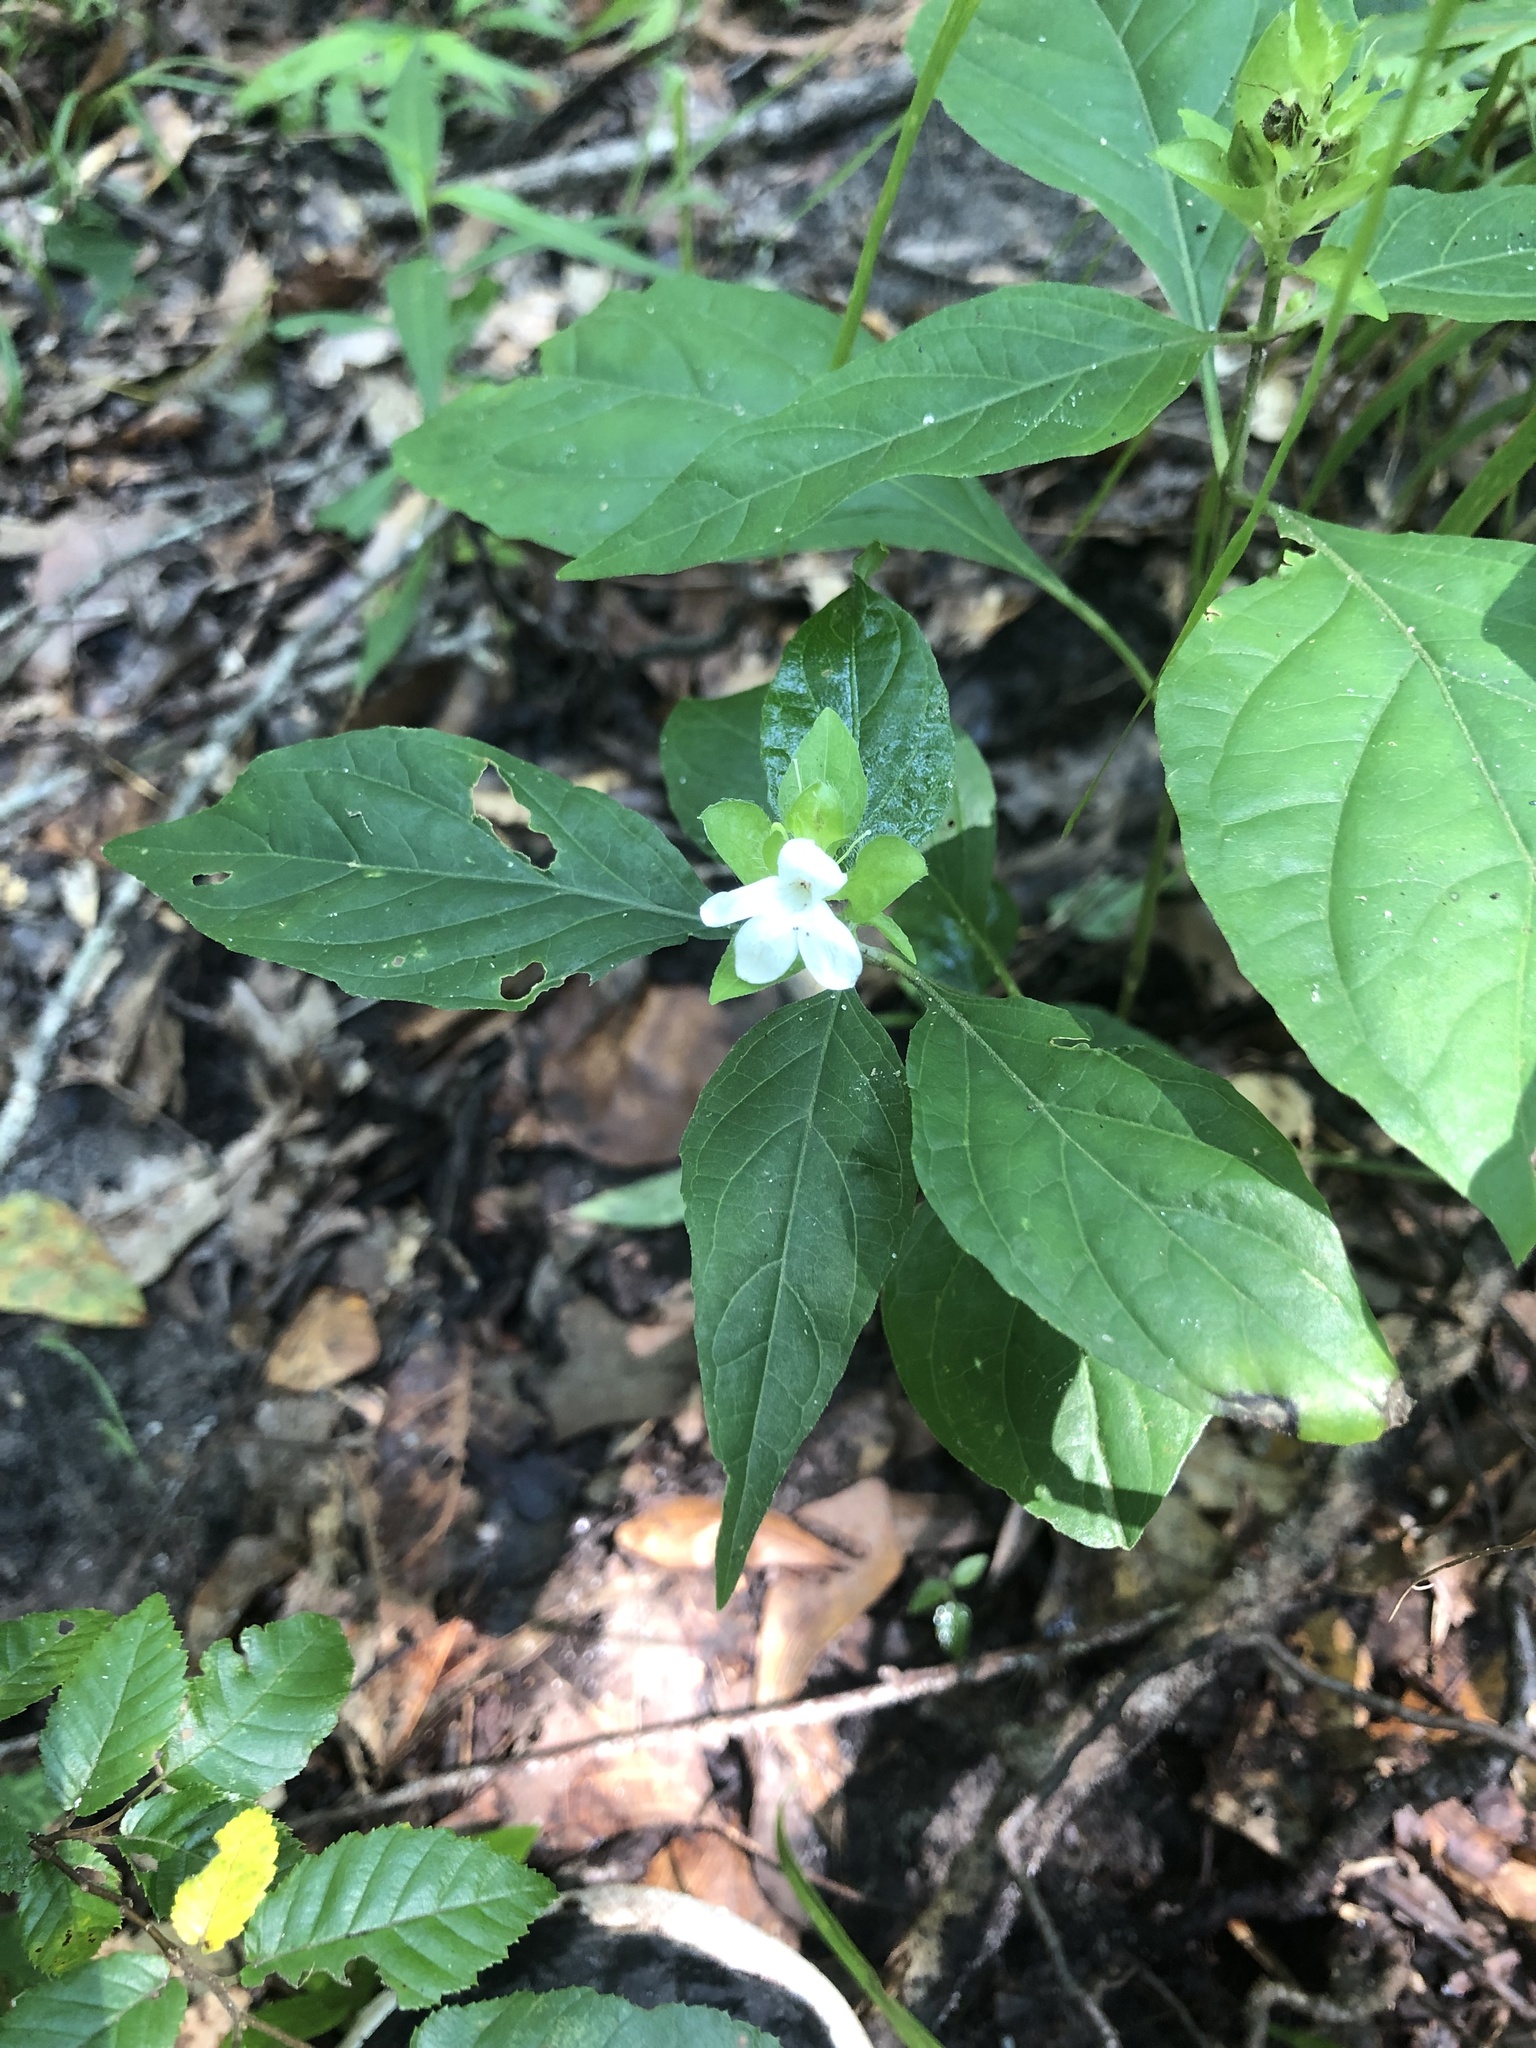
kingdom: Plantae
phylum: Tracheophyta
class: Magnoliopsida
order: Lamiales
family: Acanthaceae
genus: Yeatesia
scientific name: Yeatesia viridiflora
